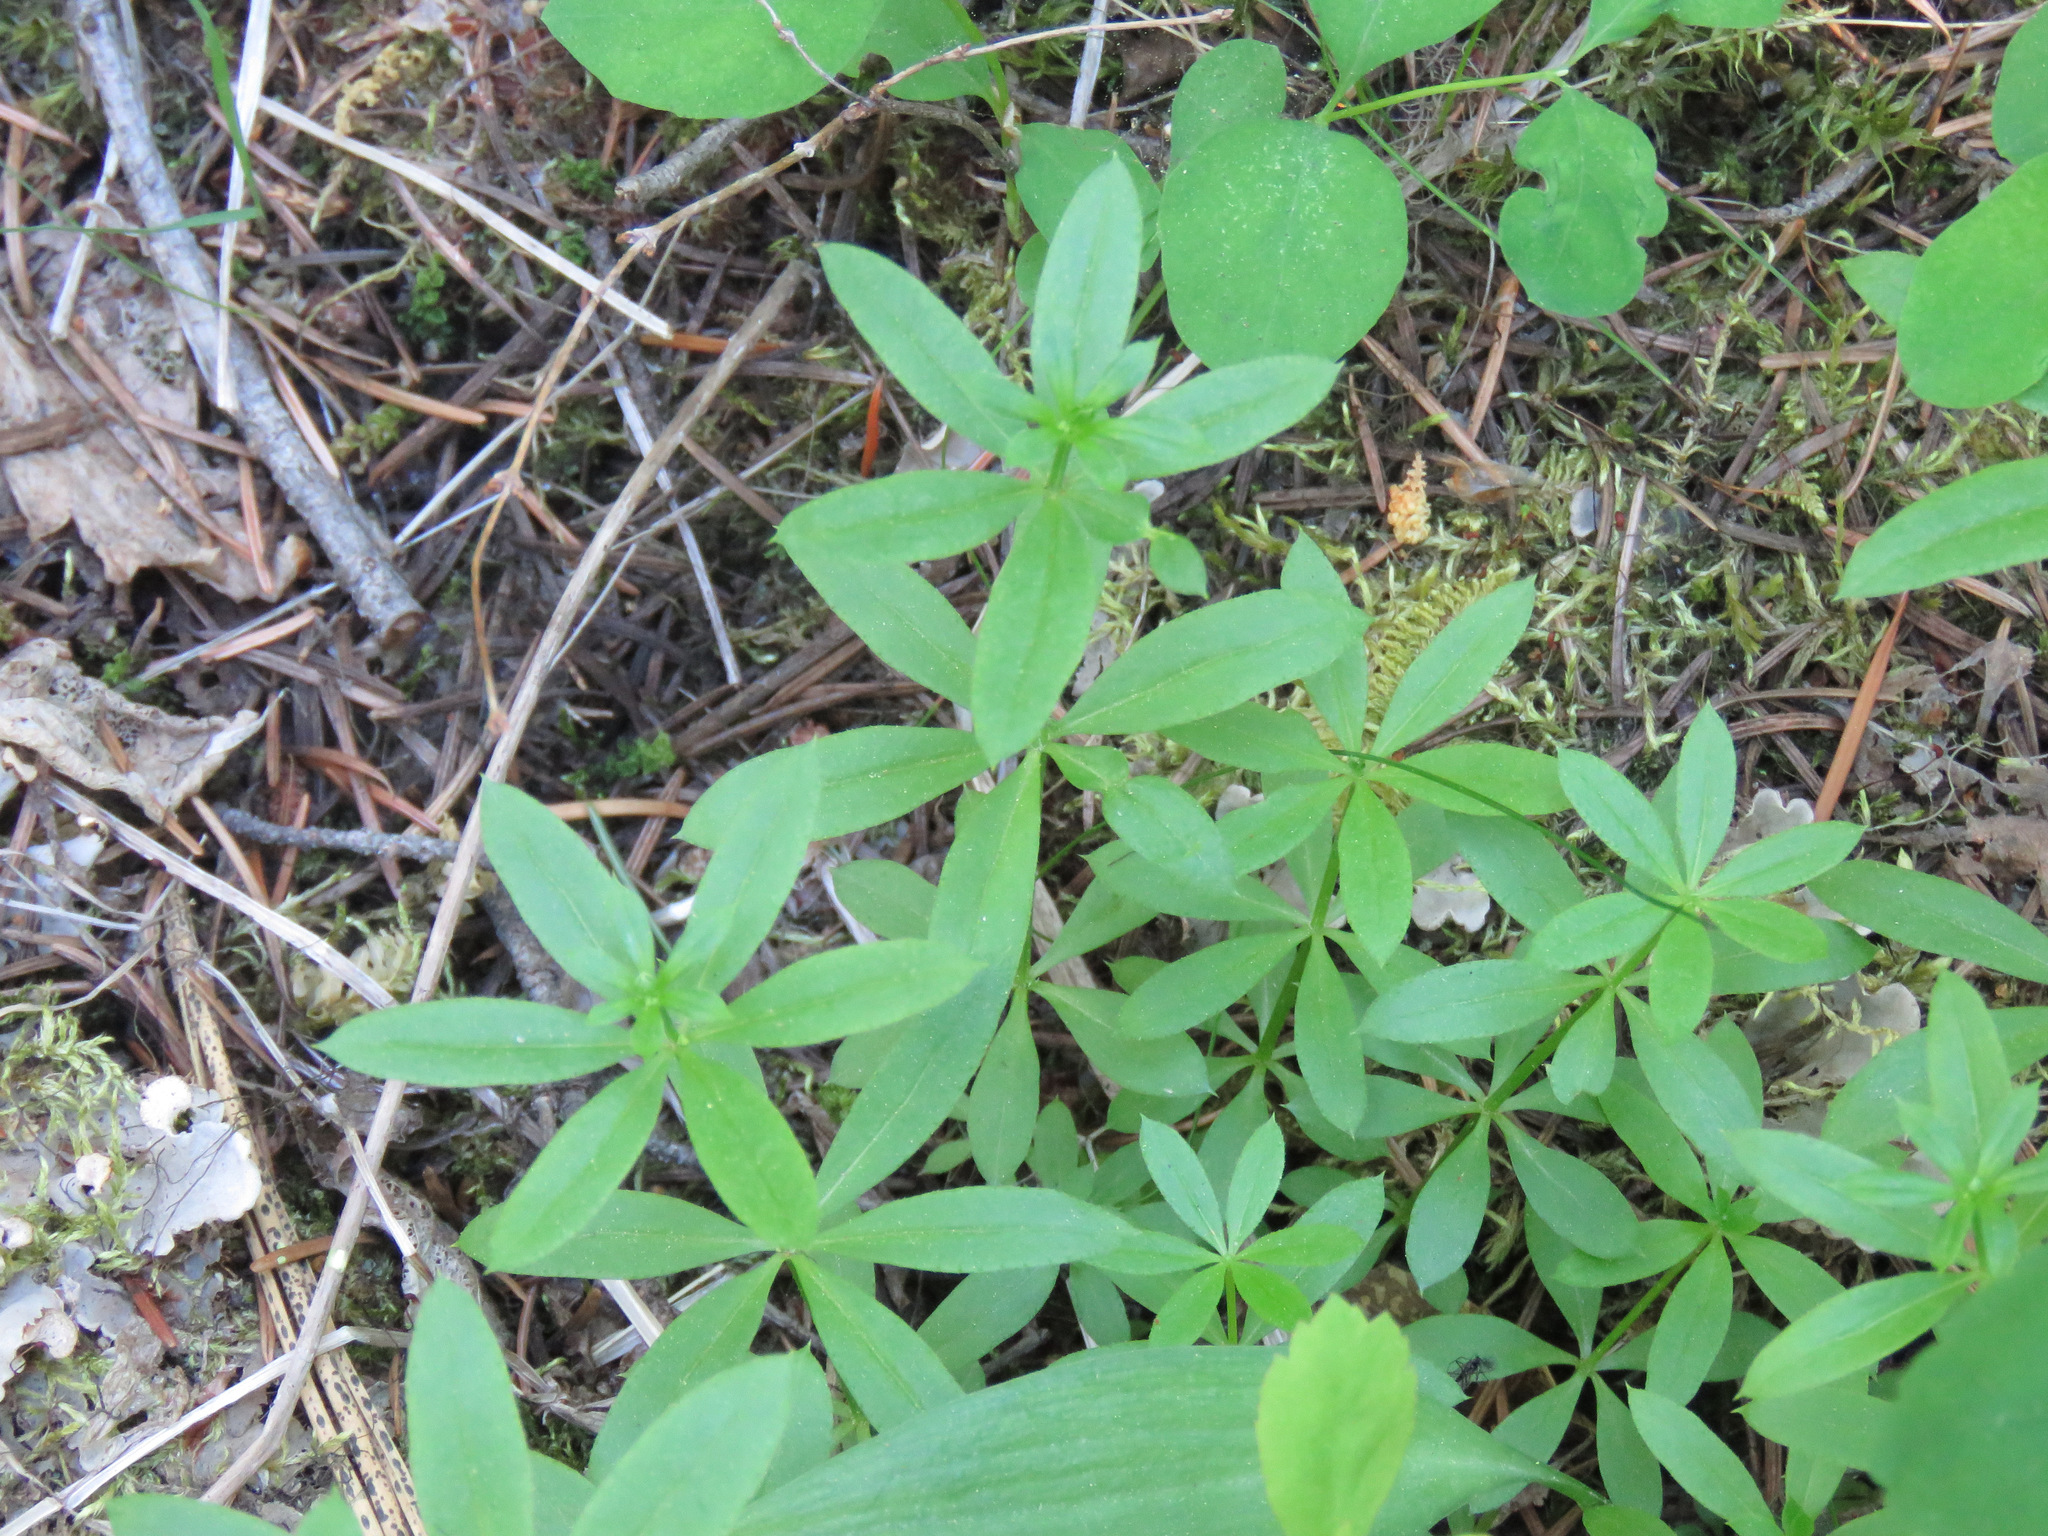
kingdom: Plantae
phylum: Tracheophyta
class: Magnoliopsida
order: Gentianales
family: Rubiaceae
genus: Galium
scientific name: Galium triflorum
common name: Fragrant bedstraw
